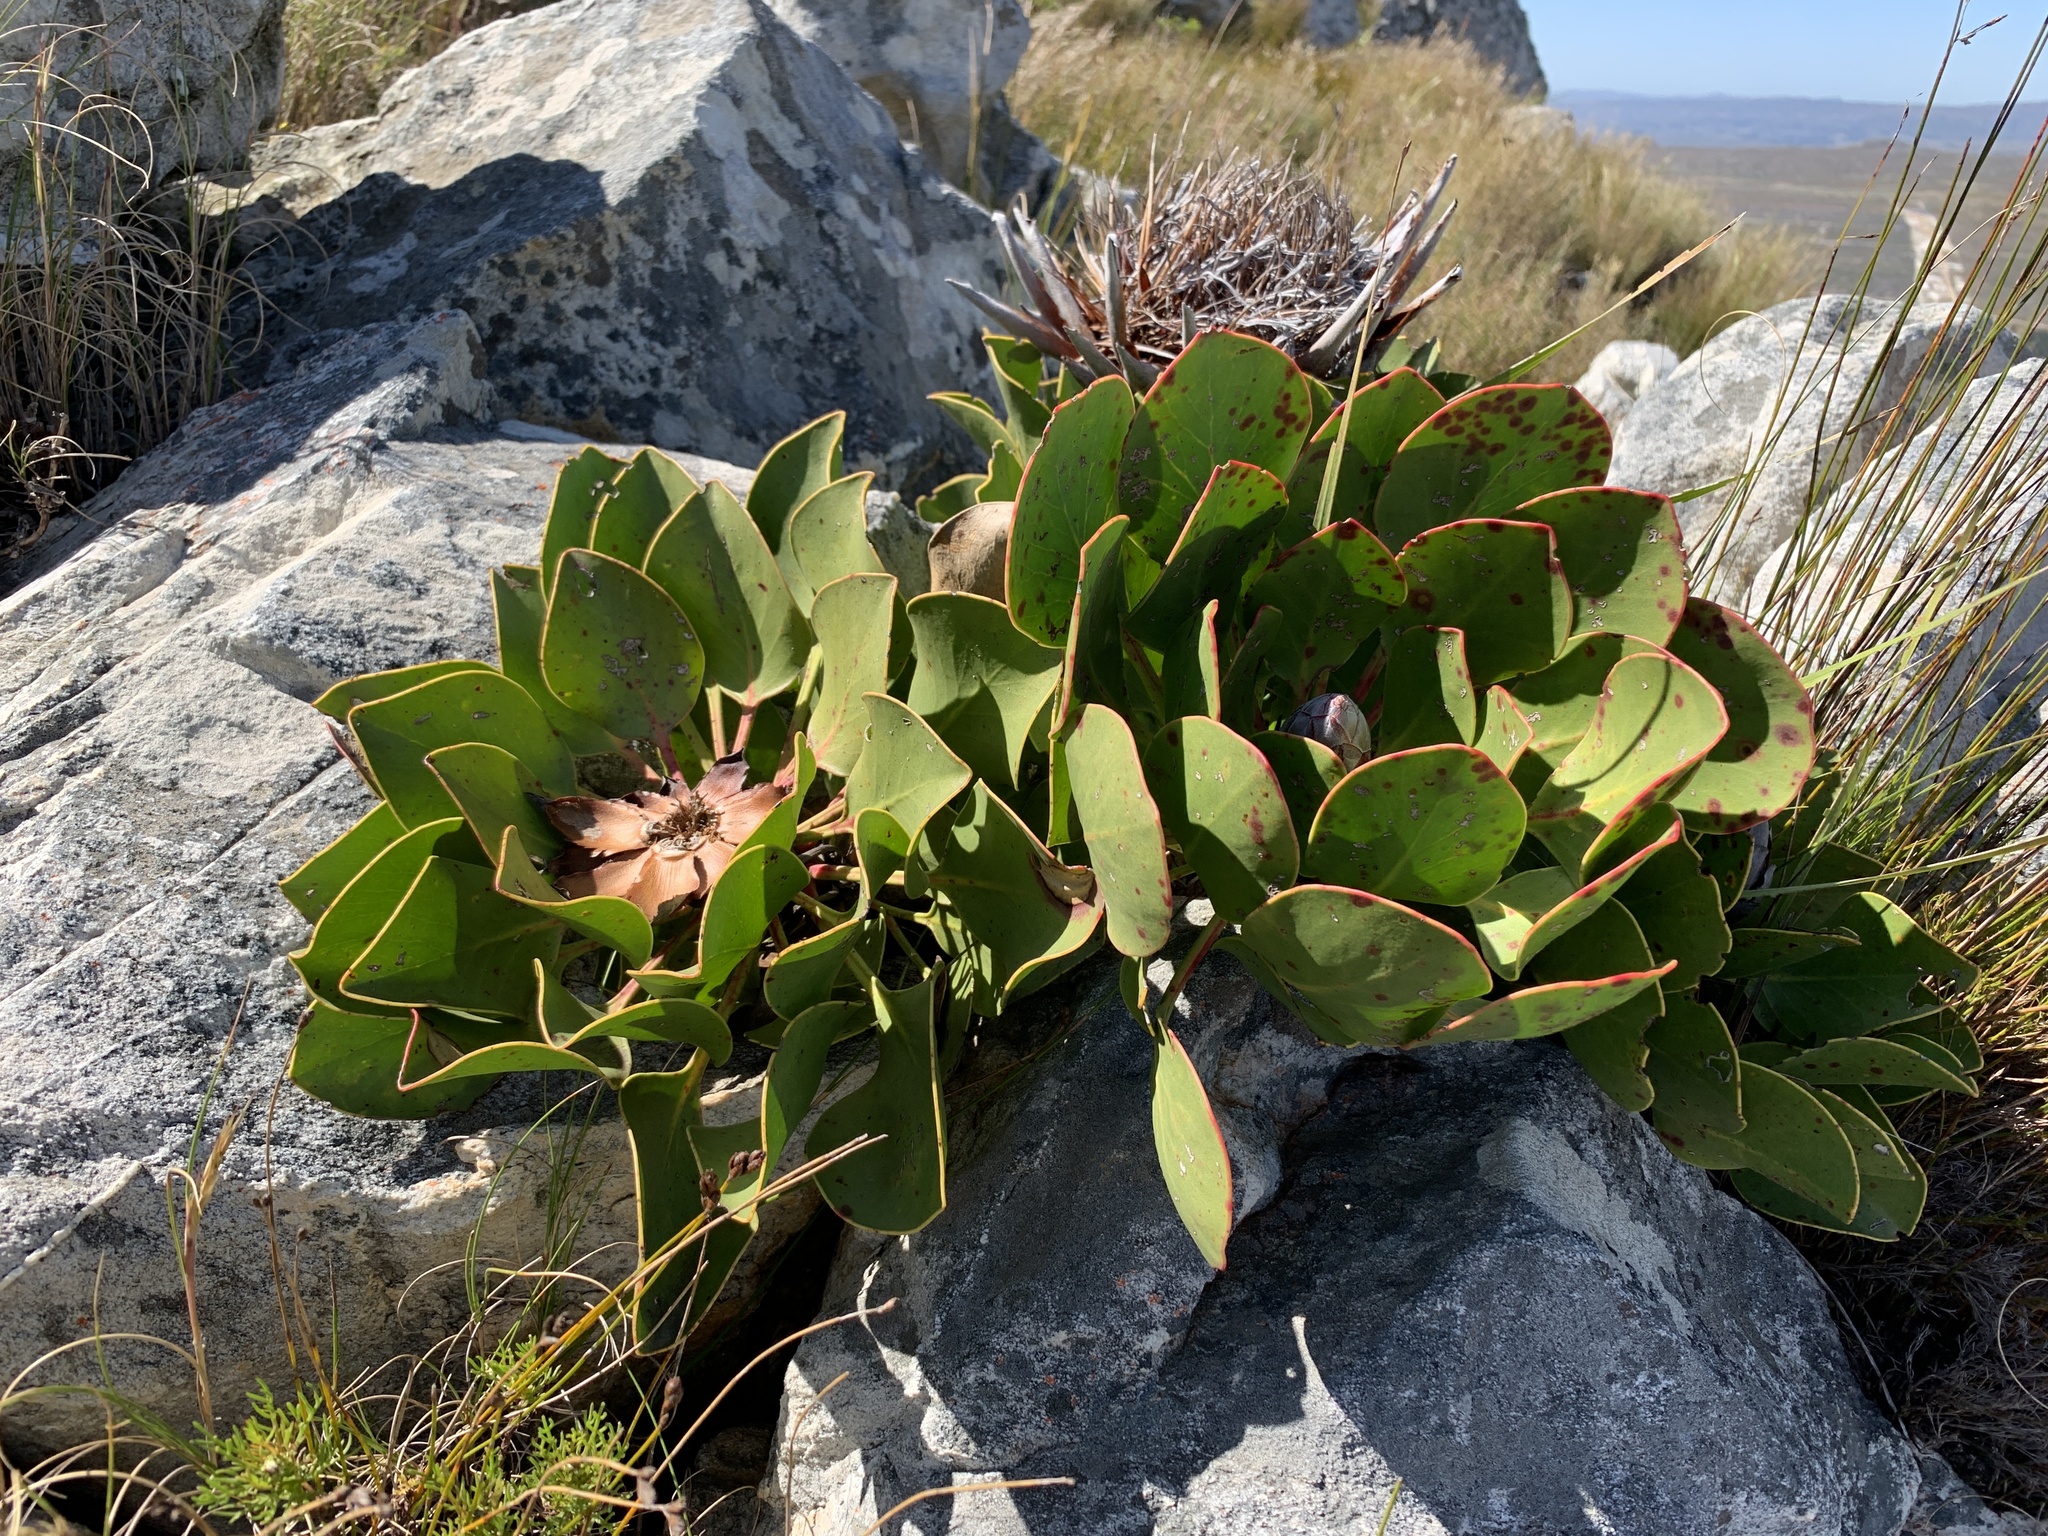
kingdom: Plantae
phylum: Tracheophyta
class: Magnoliopsida
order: Proteales
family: Proteaceae
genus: Protea
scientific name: Protea cynaroides
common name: King protea
